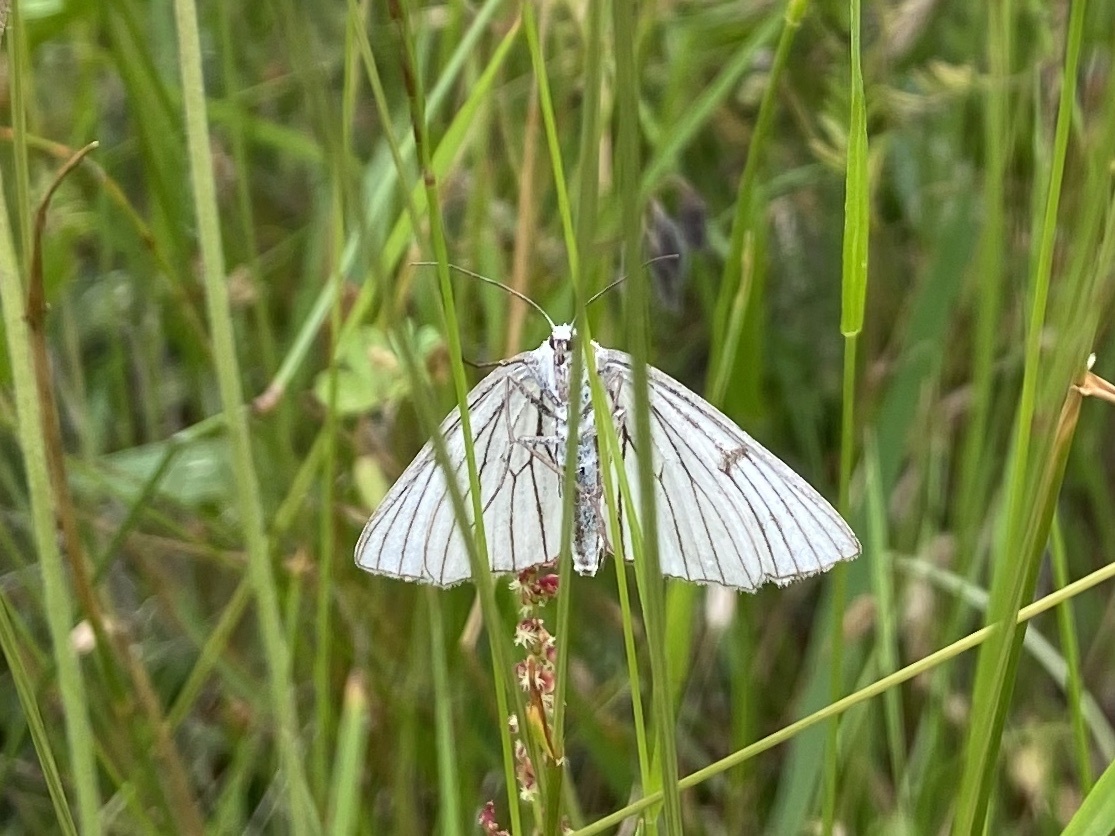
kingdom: Animalia
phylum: Arthropoda
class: Insecta
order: Lepidoptera
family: Geometridae
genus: Siona
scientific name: Siona lineata
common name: Black-veined moth
